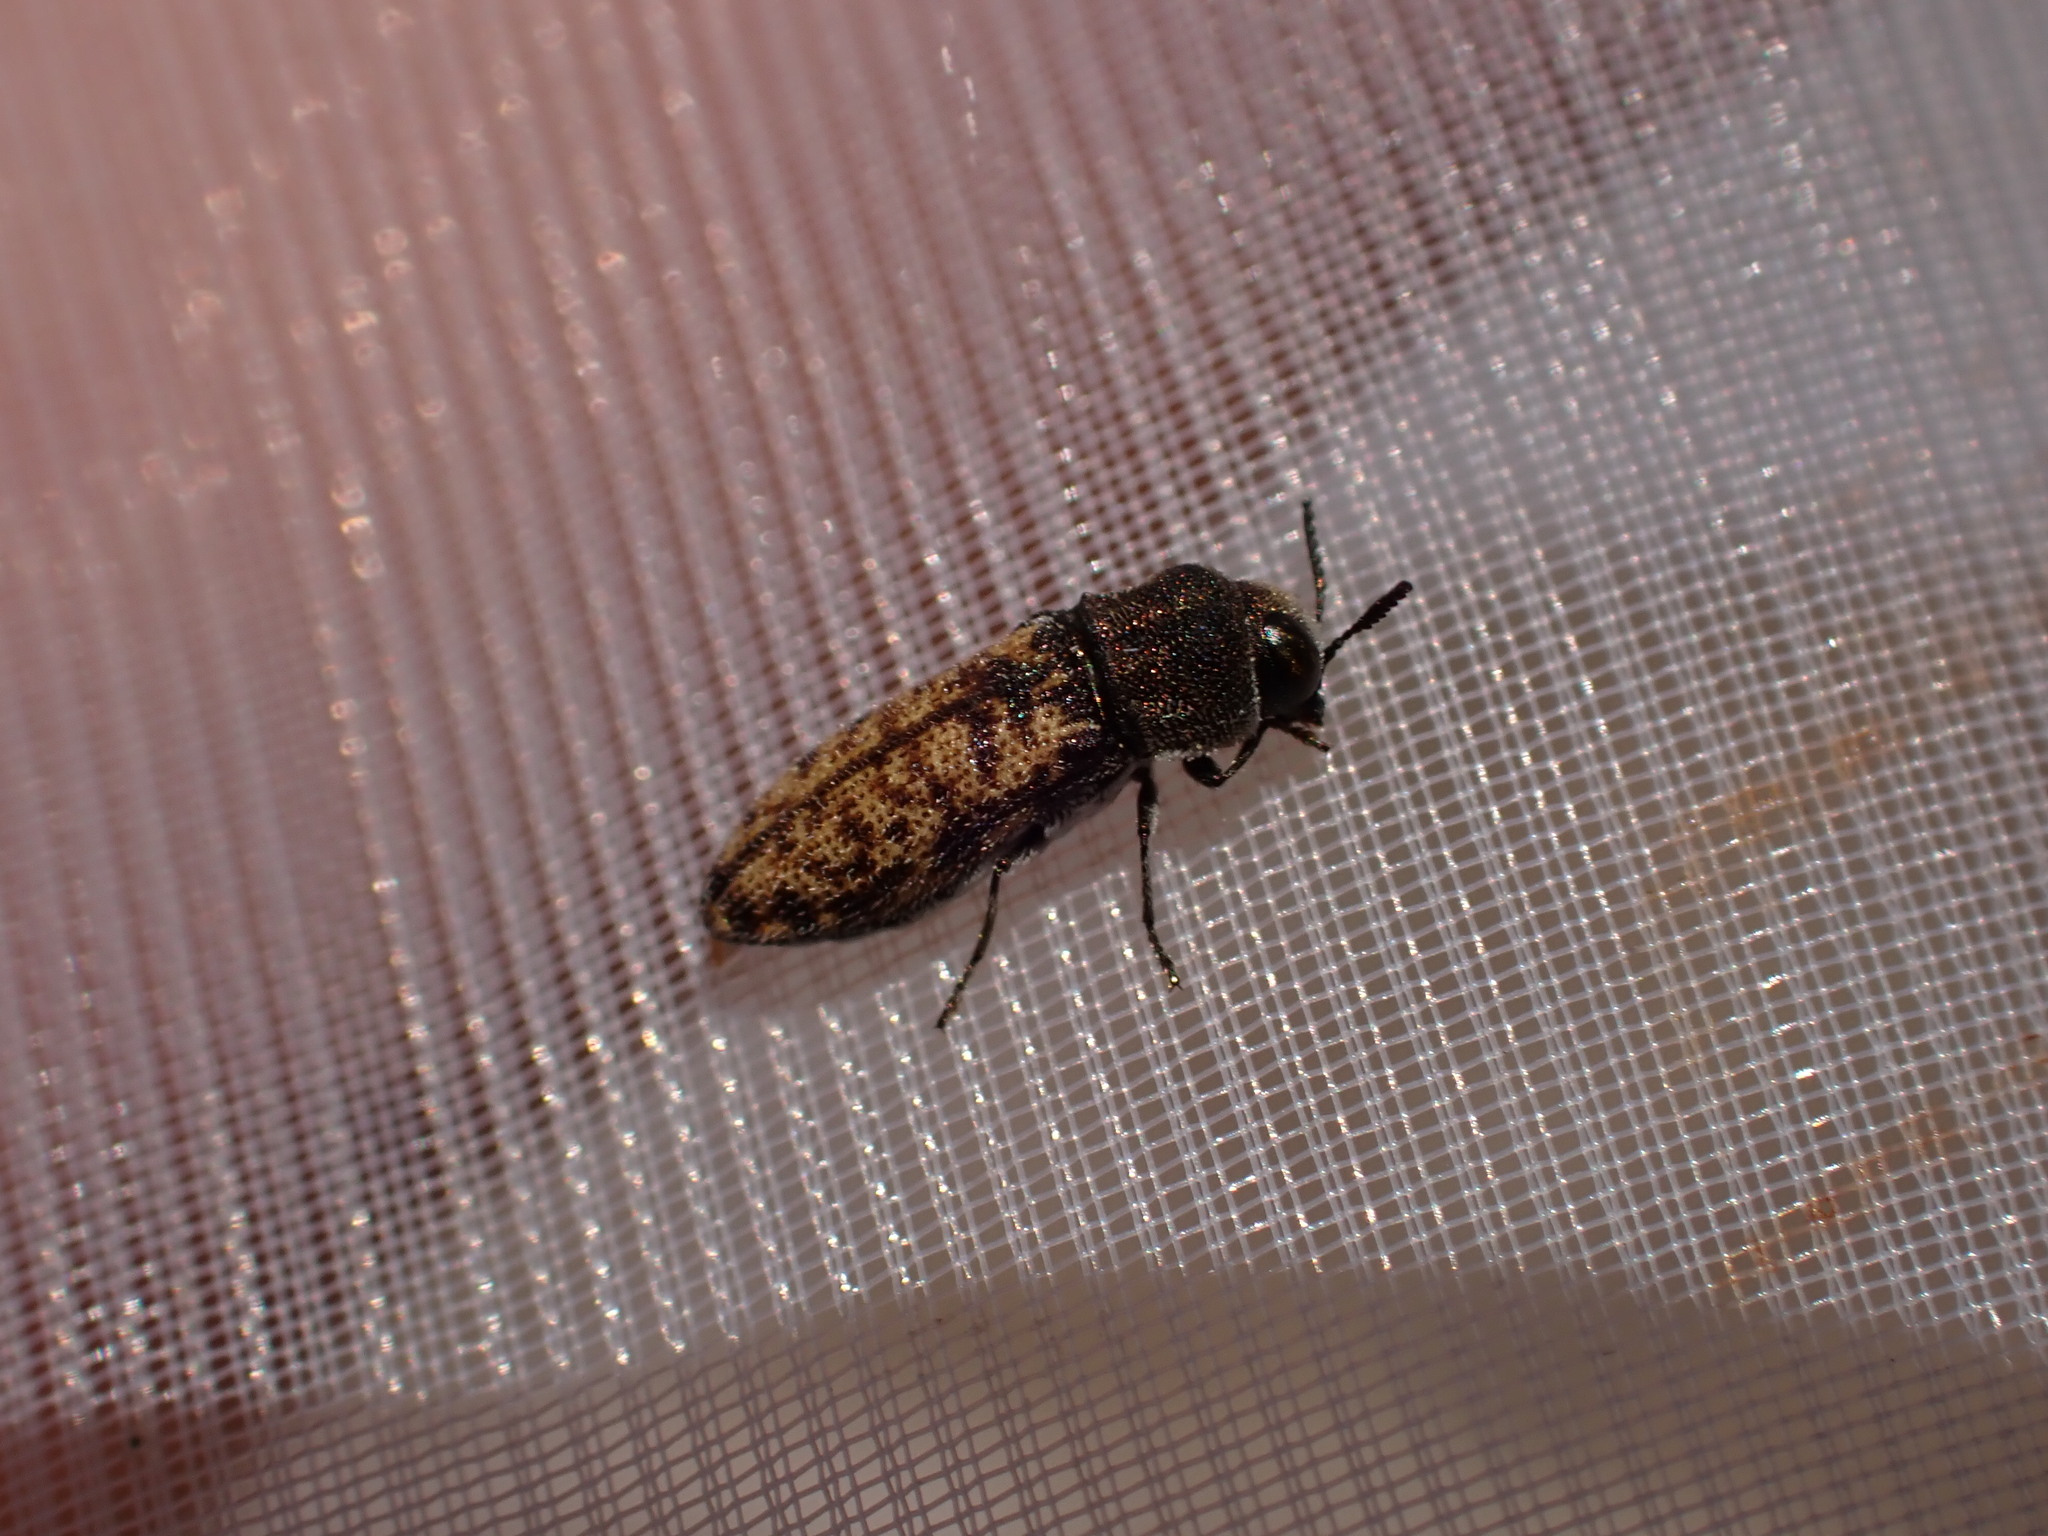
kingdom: Animalia
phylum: Arthropoda
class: Insecta
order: Coleoptera
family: Buprestidae
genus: Acmaeoderella
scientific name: Acmaeoderella adspersula
